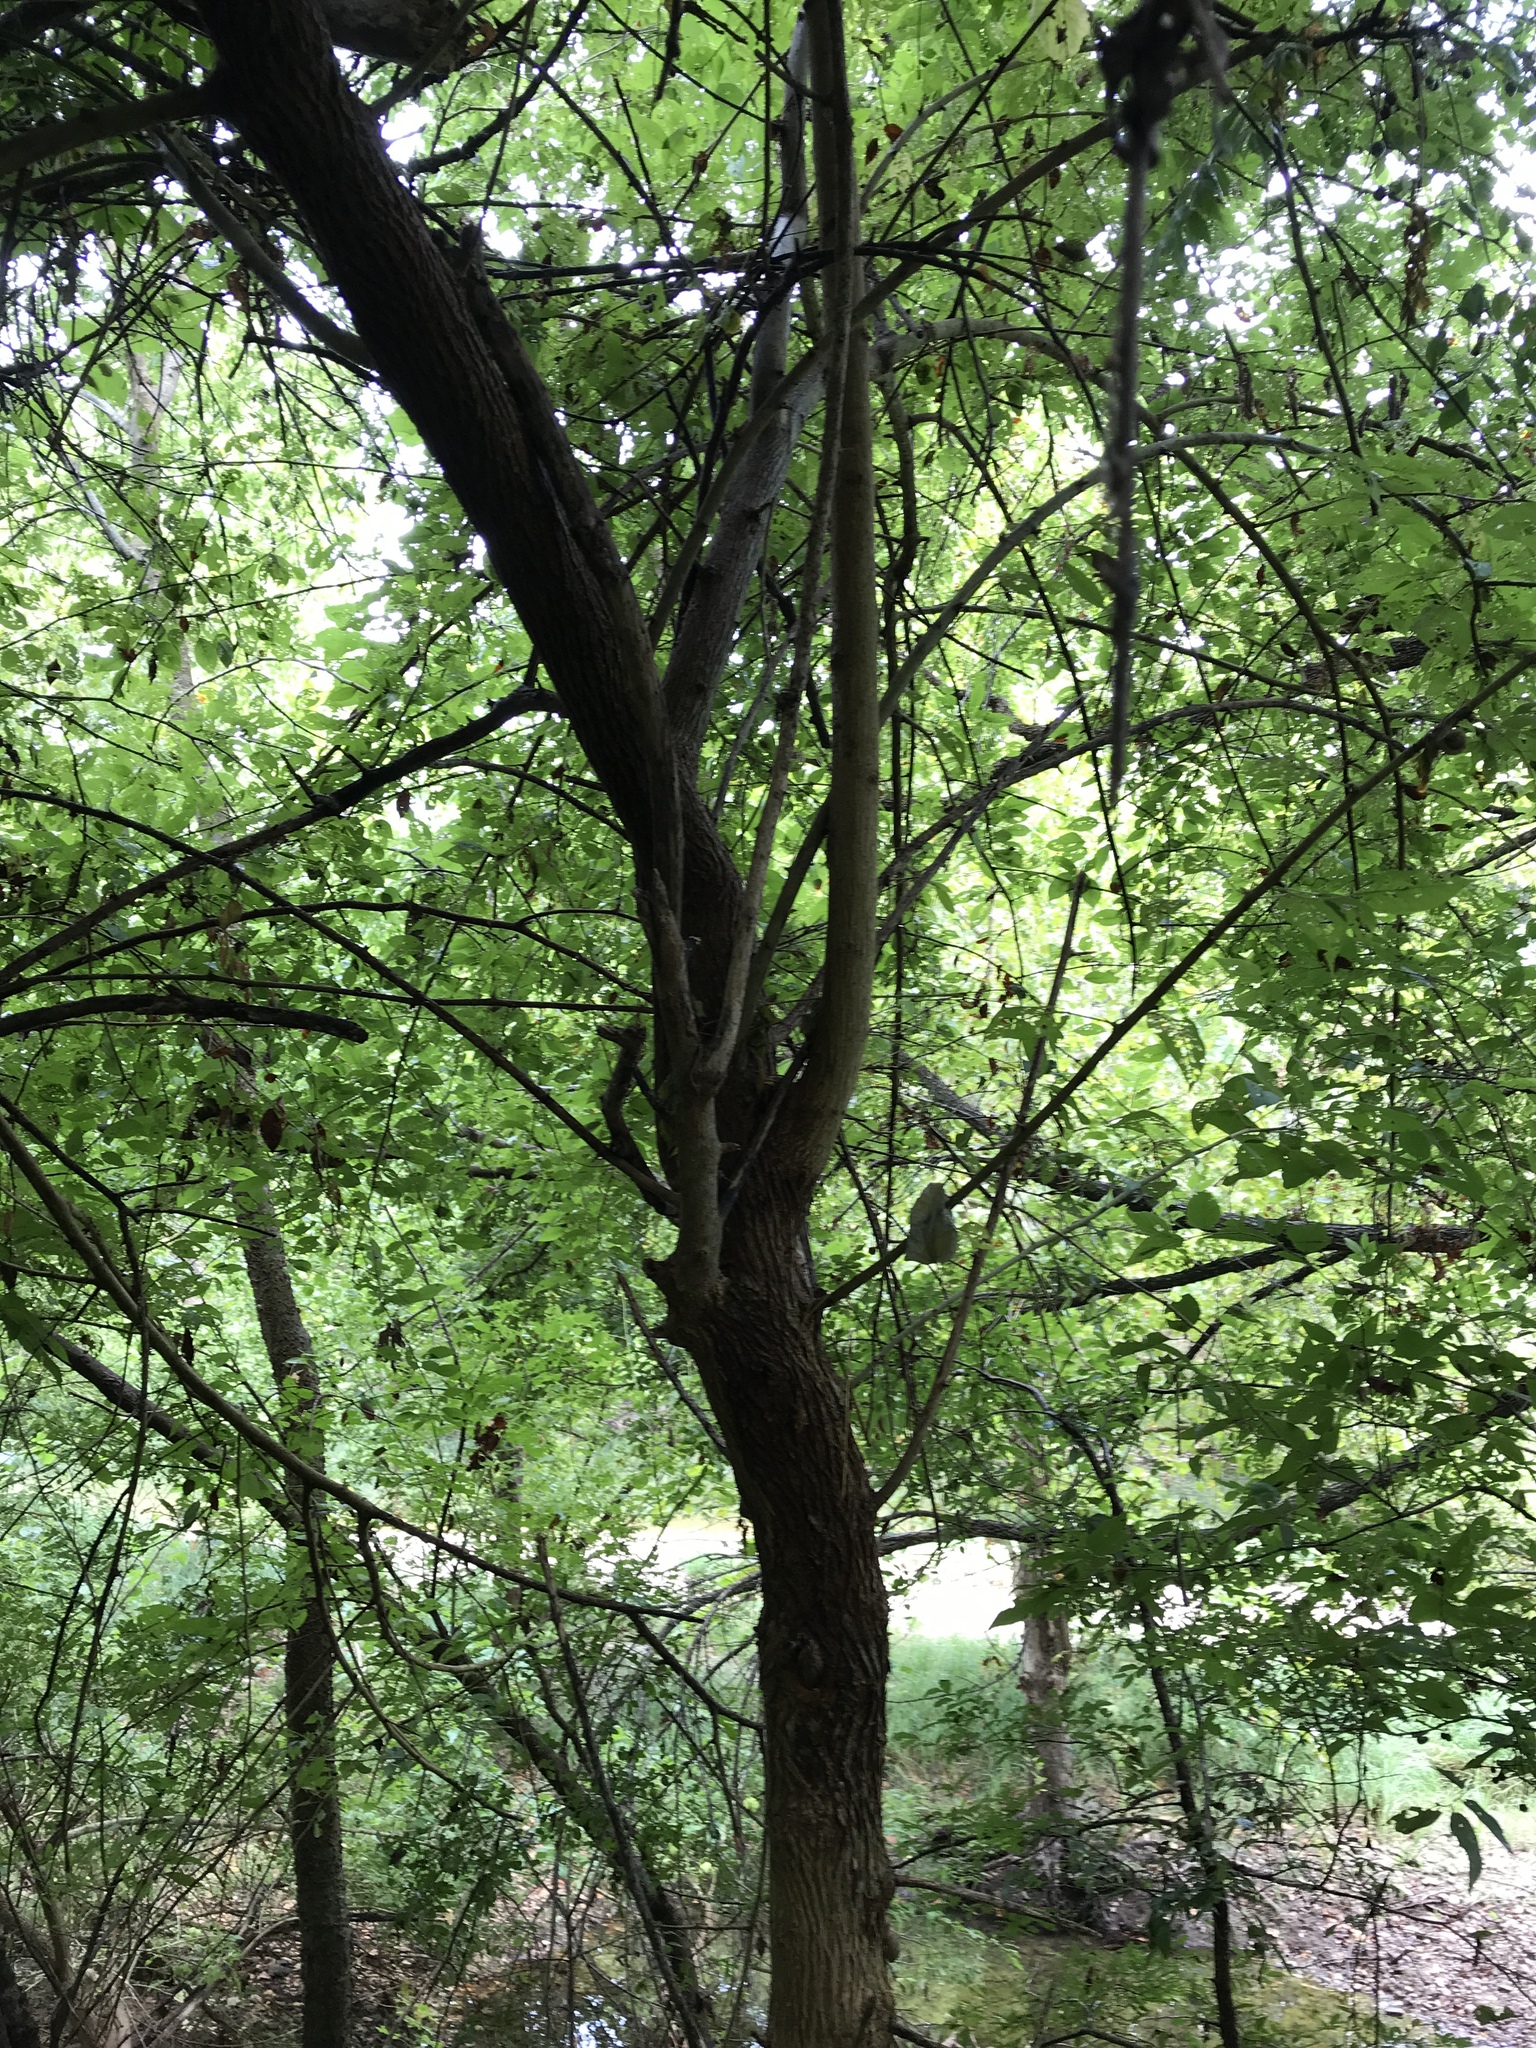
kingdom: Plantae
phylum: Tracheophyta
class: Magnoliopsida
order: Rosales
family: Moraceae
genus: Maclura
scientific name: Maclura pomifera
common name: Osage-orange
